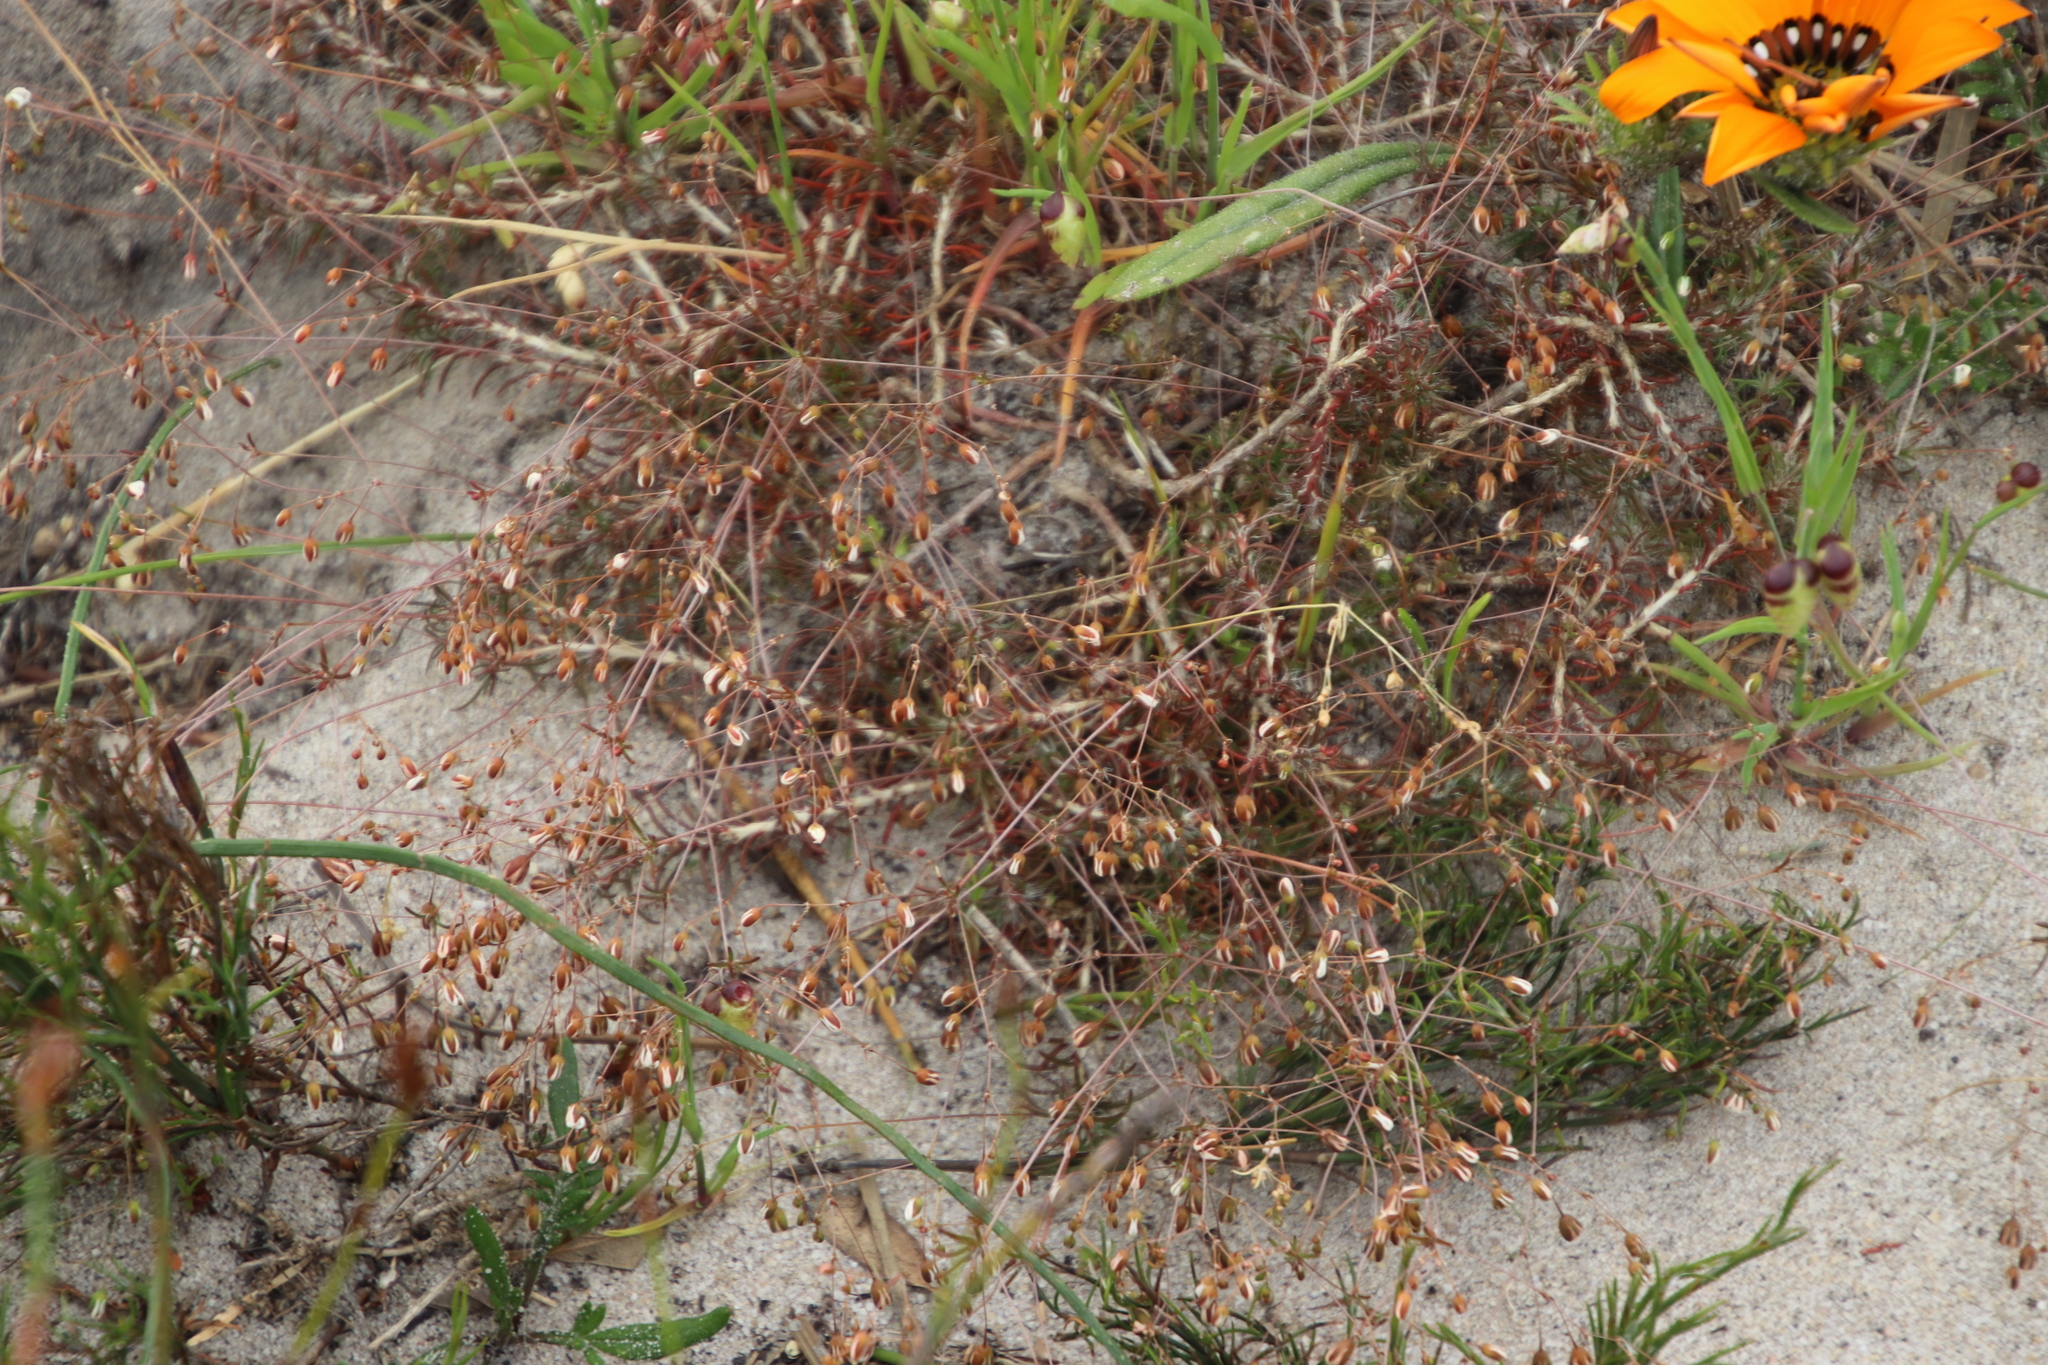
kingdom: Plantae
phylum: Tracheophyta
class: Magnoliopsida
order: Caryophyllales
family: Molluginaceae
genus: Pharnaceum
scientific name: Pharnaceum incanum
